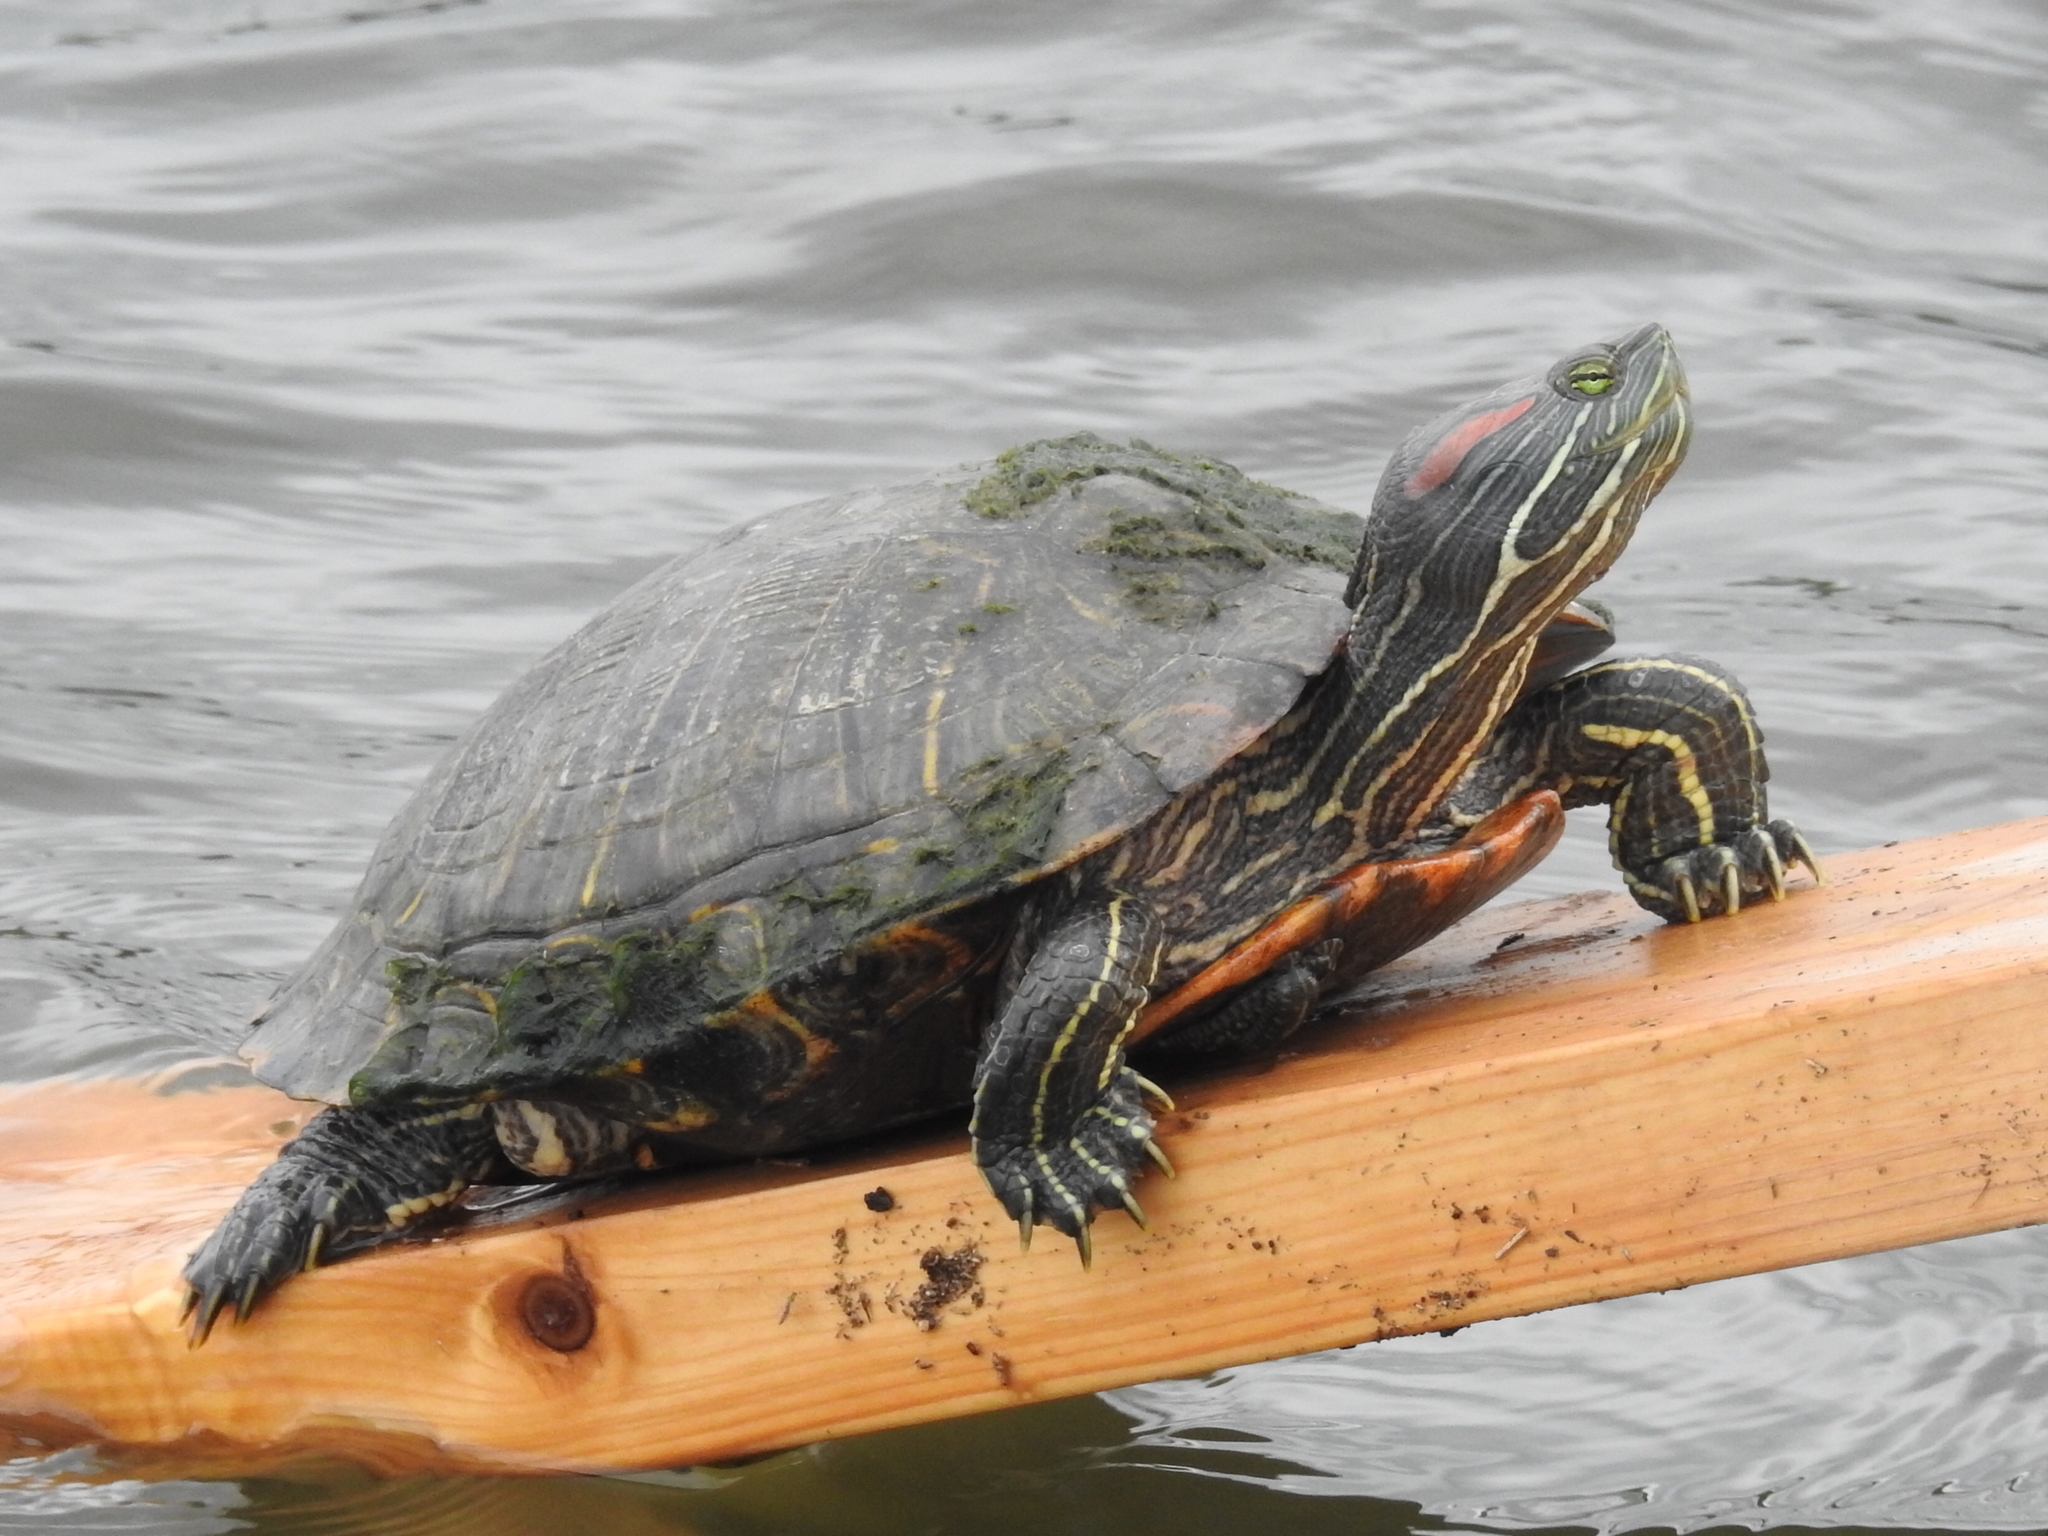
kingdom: Animalia
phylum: Chordata
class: Testudines
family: Emydidae
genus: Trachemys
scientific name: Trachemys scripta
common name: Slider
